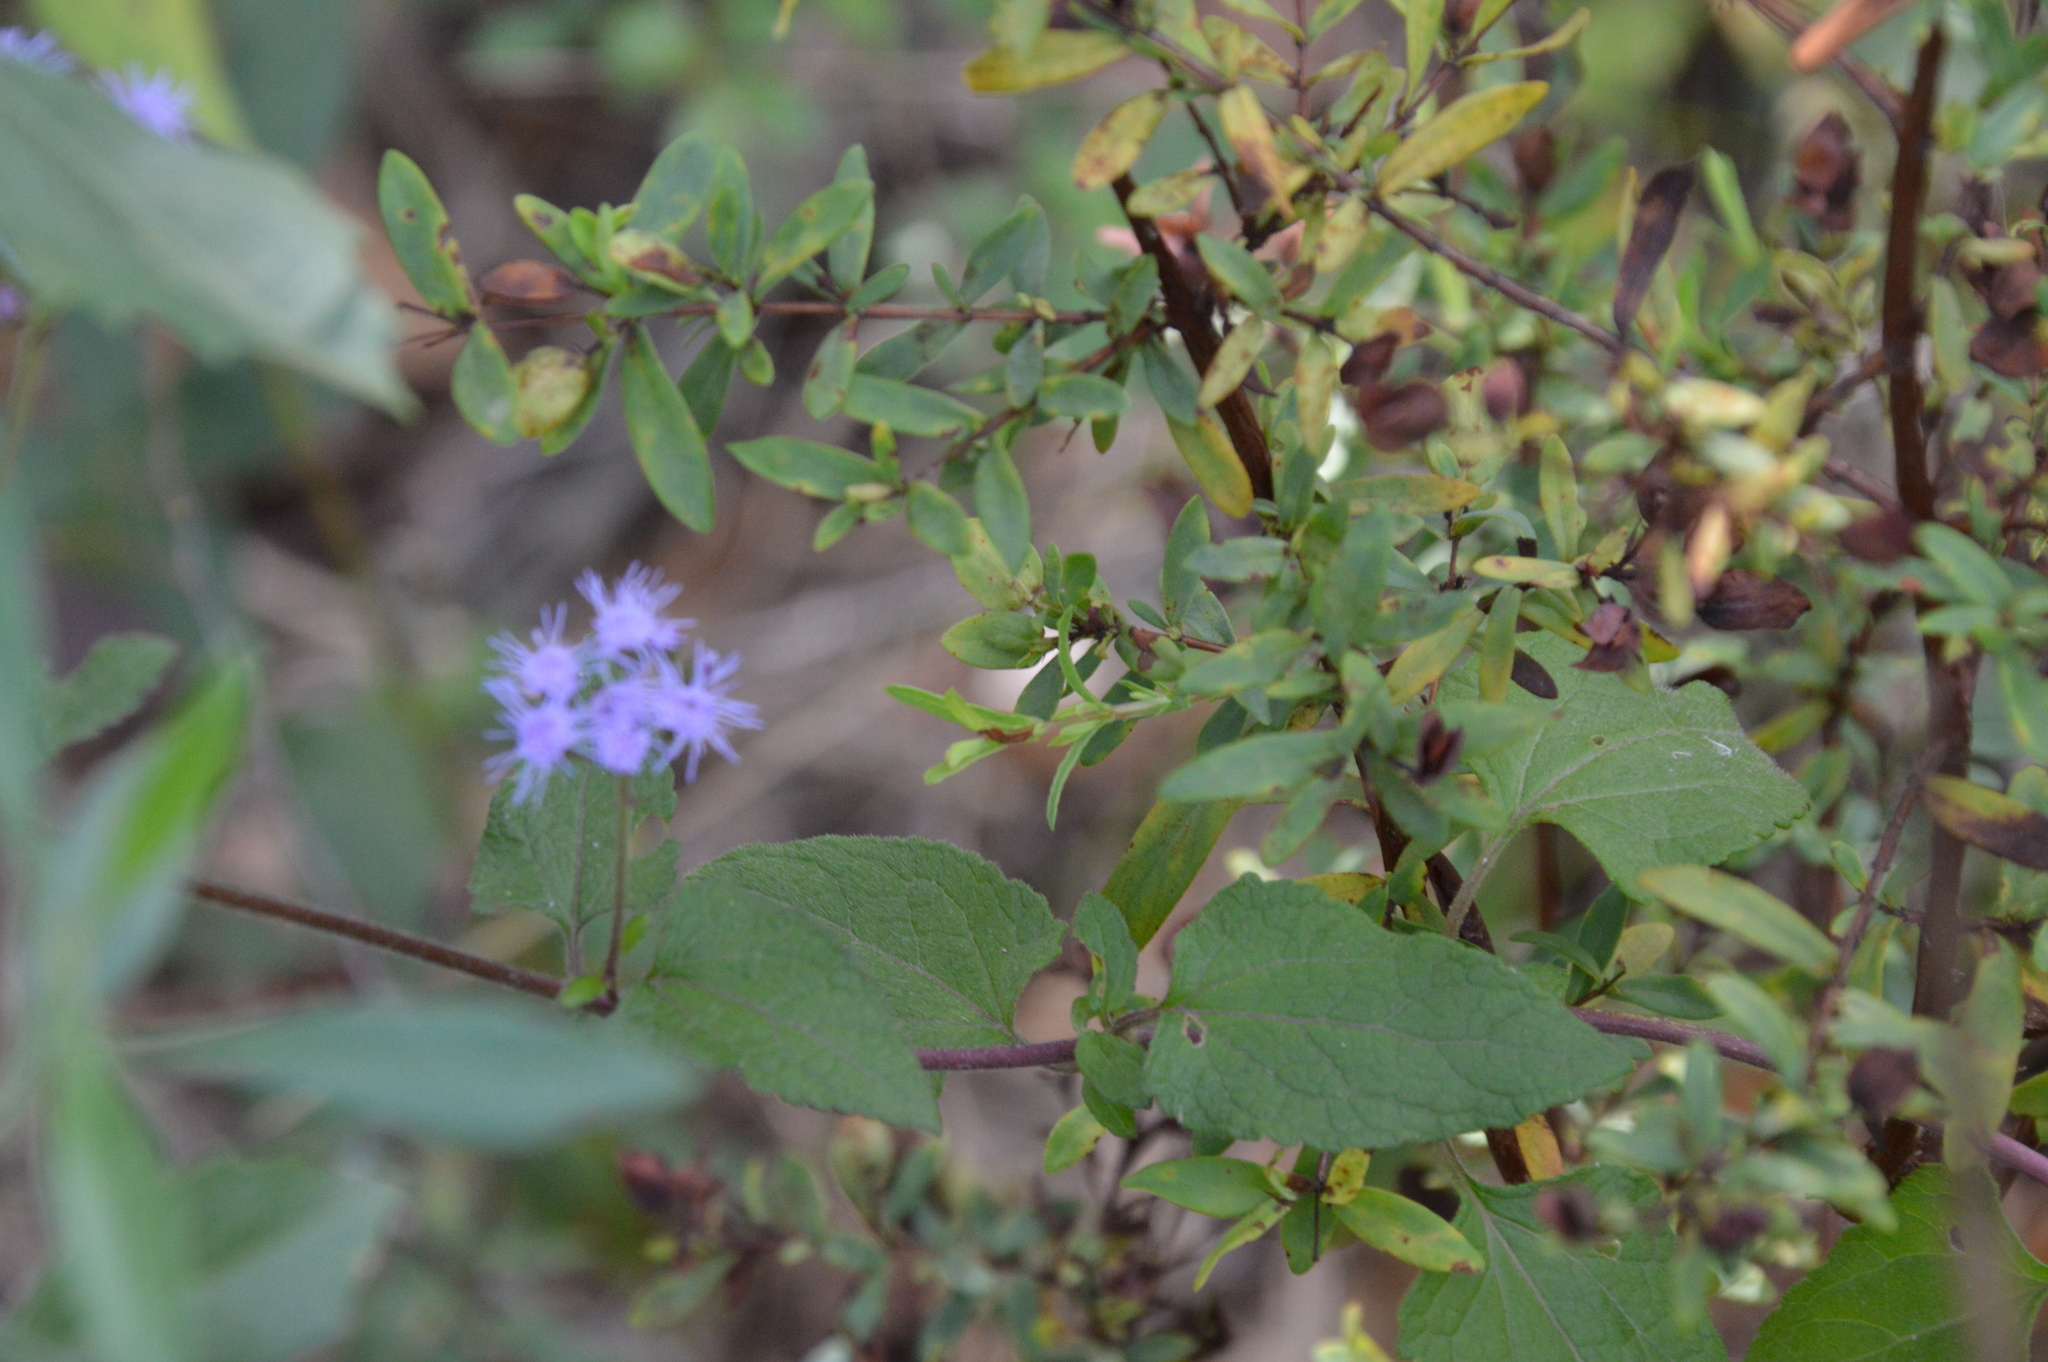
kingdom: Plantae
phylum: Tracheophyta
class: Magnoliopsida
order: Asterales
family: Asteraceae
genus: Conoclinium
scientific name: Conoclinium coelestinum
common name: Blue mistflower
